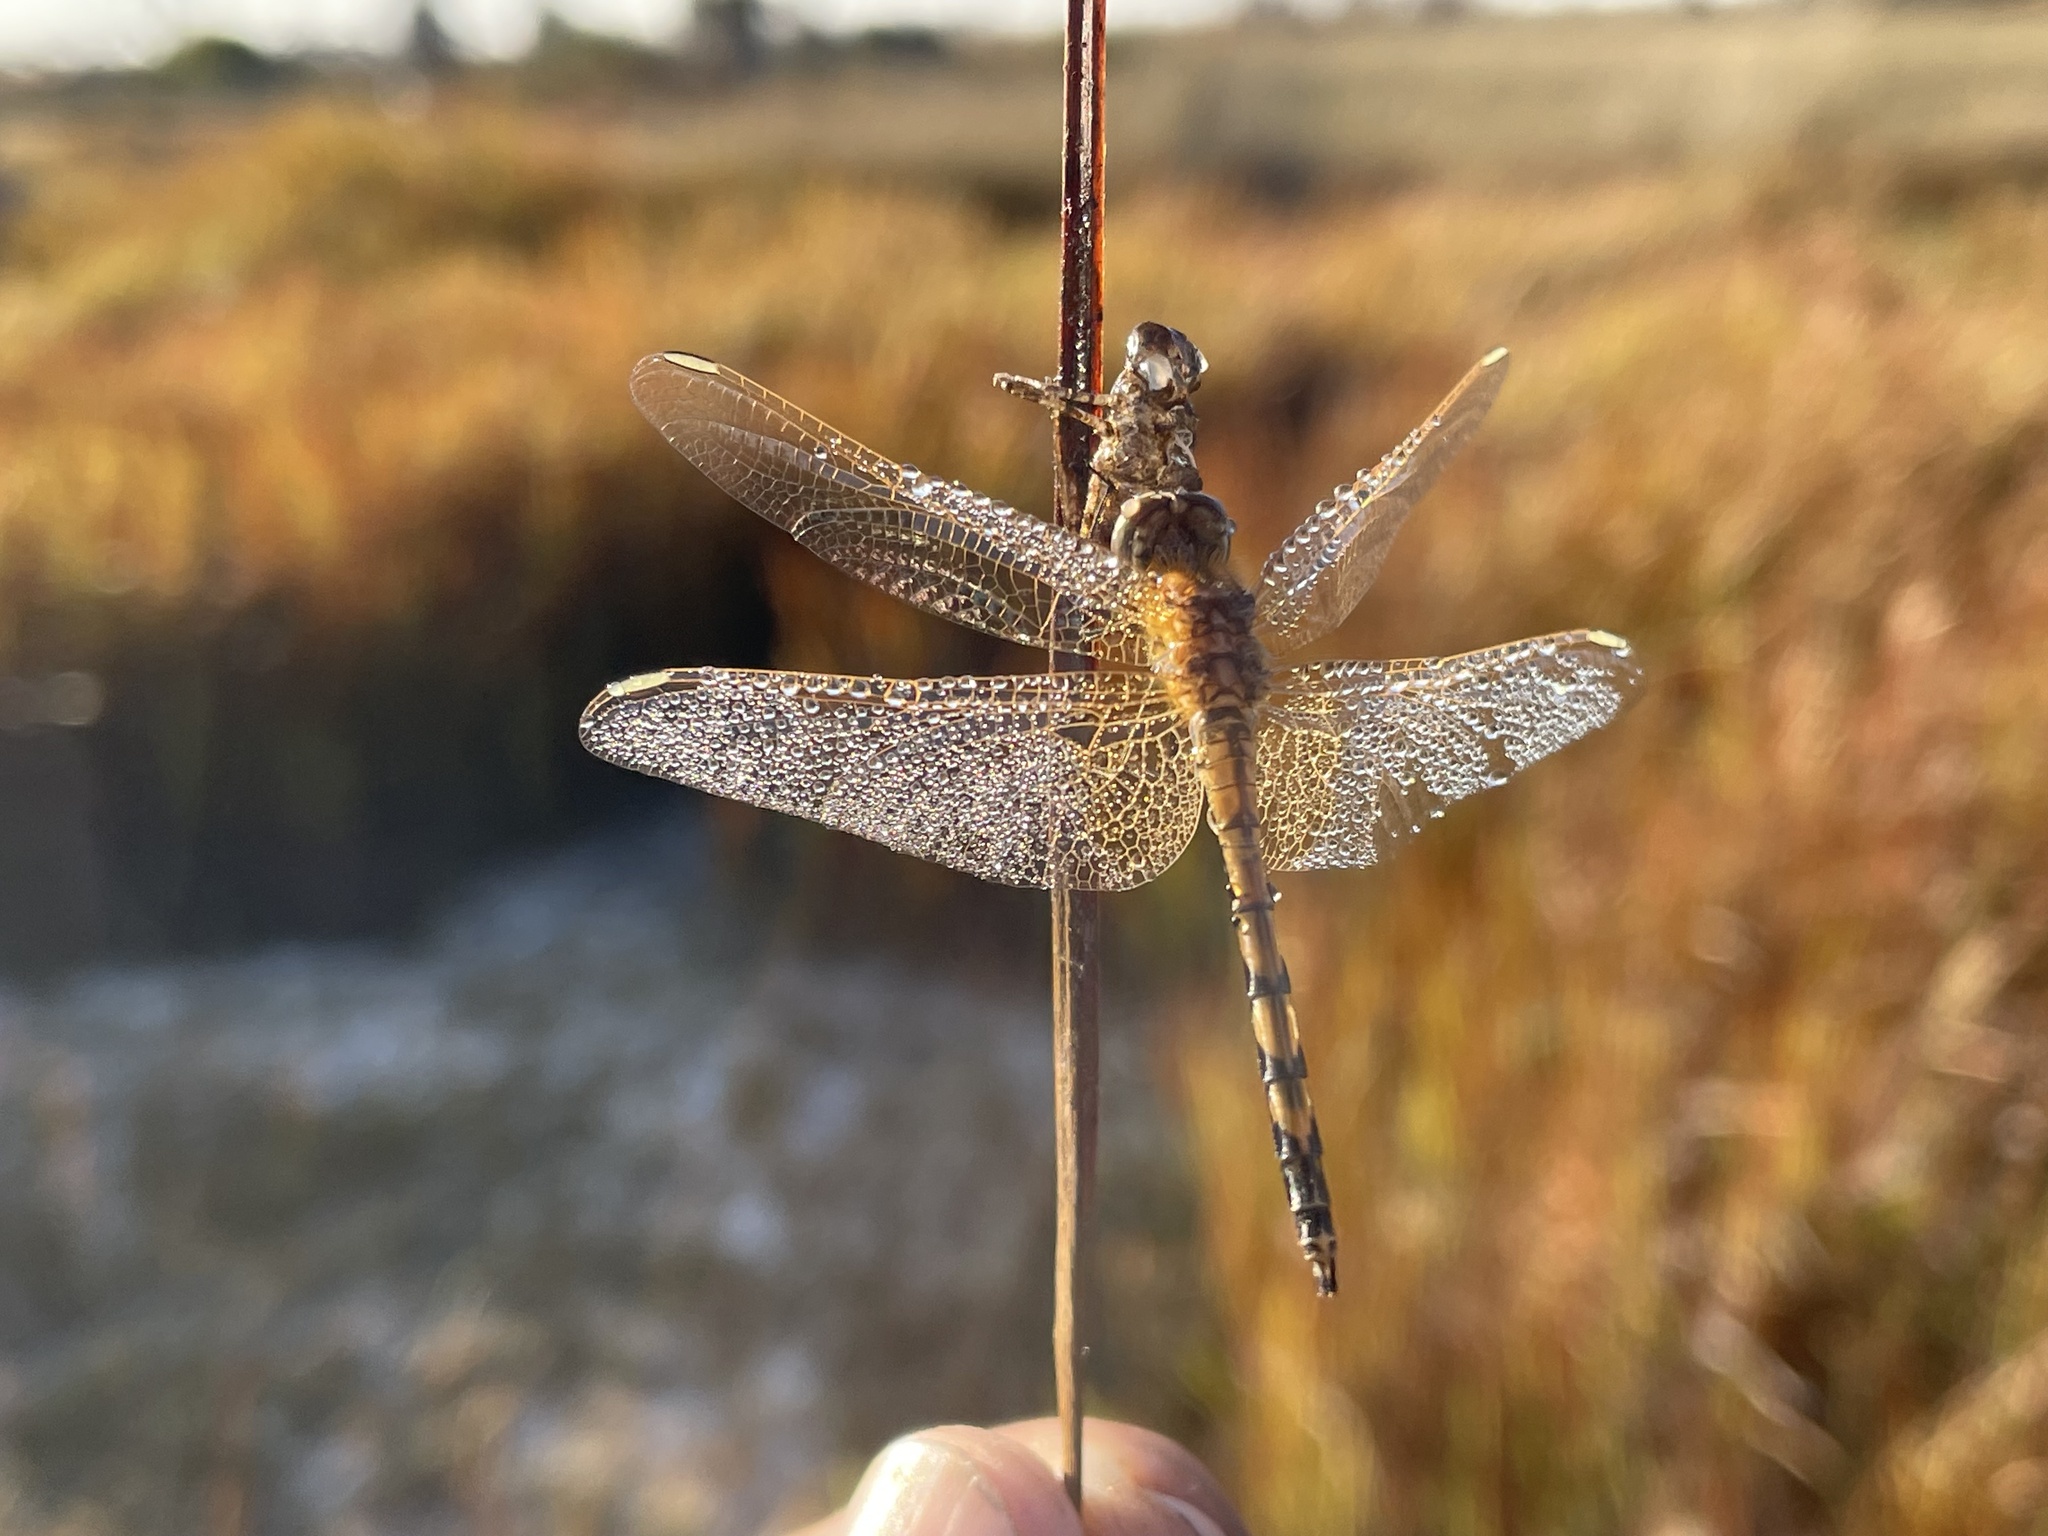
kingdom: Animalia
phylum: Arthropoda
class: Insecta
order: Odonata
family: Libellulidae
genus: Trithemis
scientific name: Trithemis monardi
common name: Monard's dropwing
